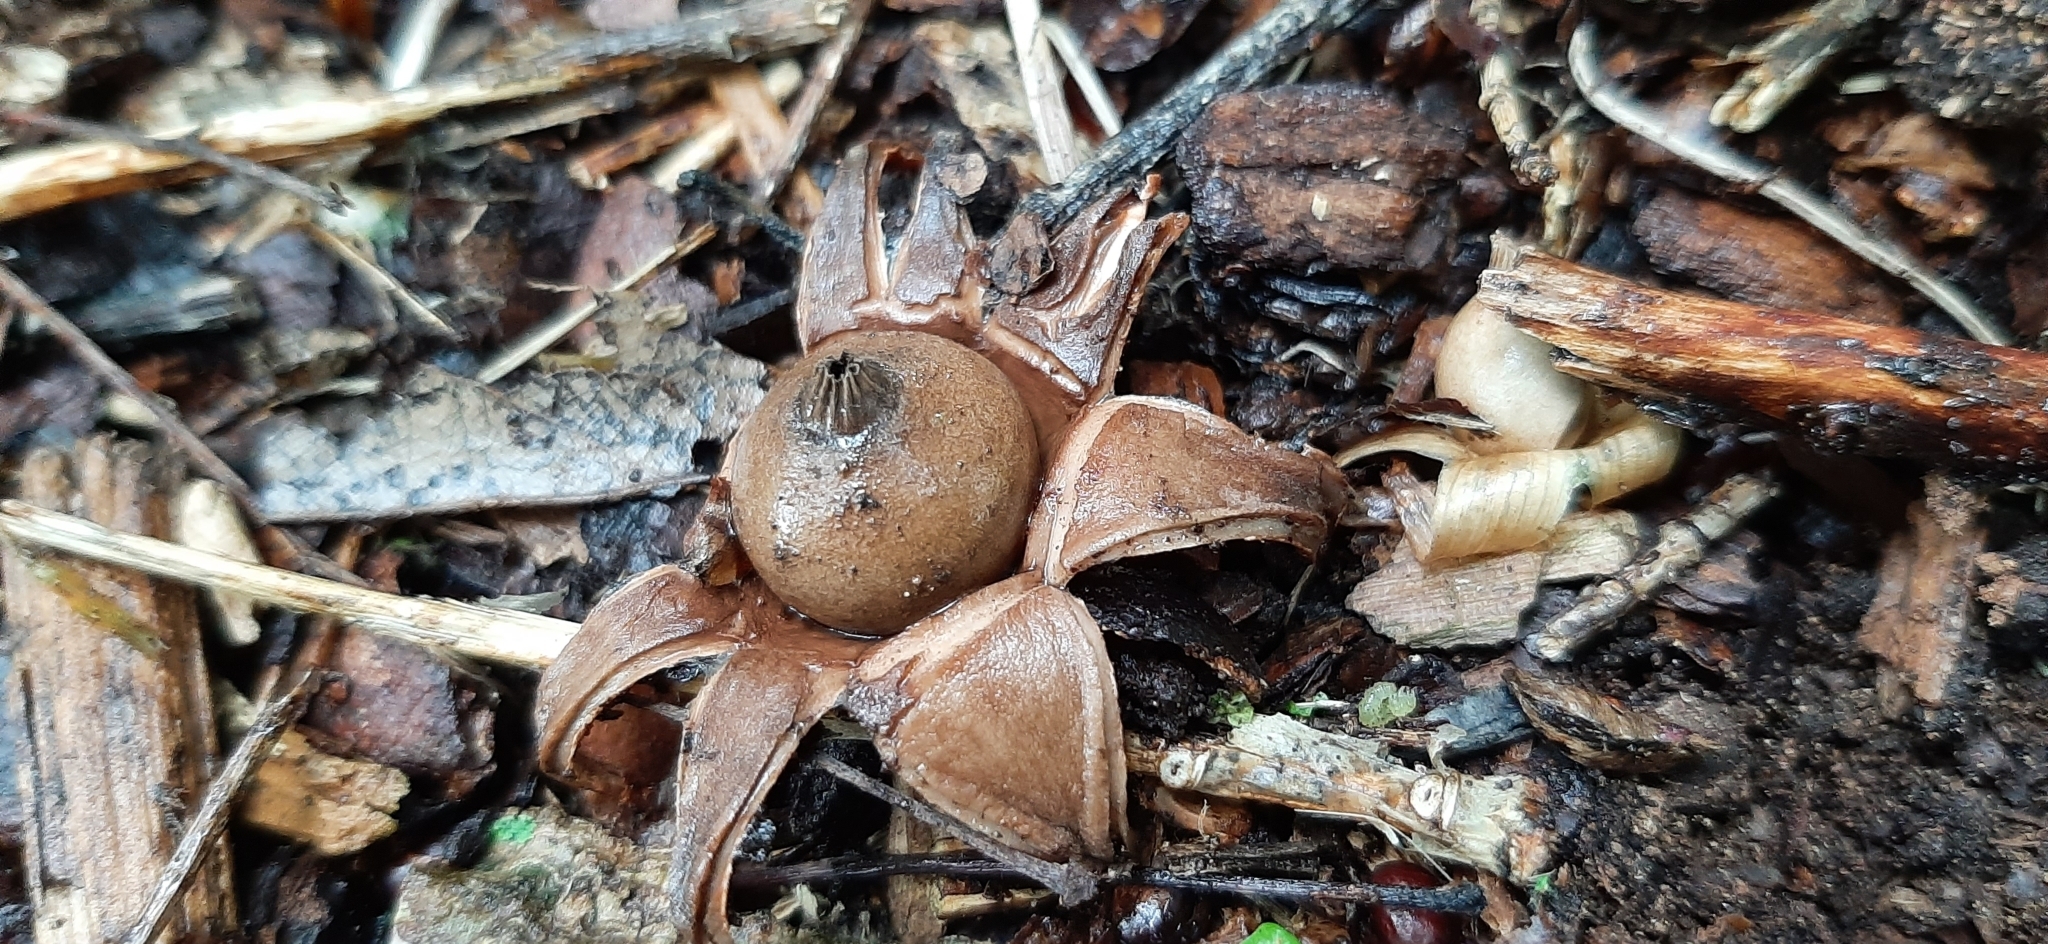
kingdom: Fungi
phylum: Basidiomycota
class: Agaricomycetes
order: Geastrales
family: Geastraceae
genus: Geastrum
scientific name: Geastrum triplex
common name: Collared earthstar
